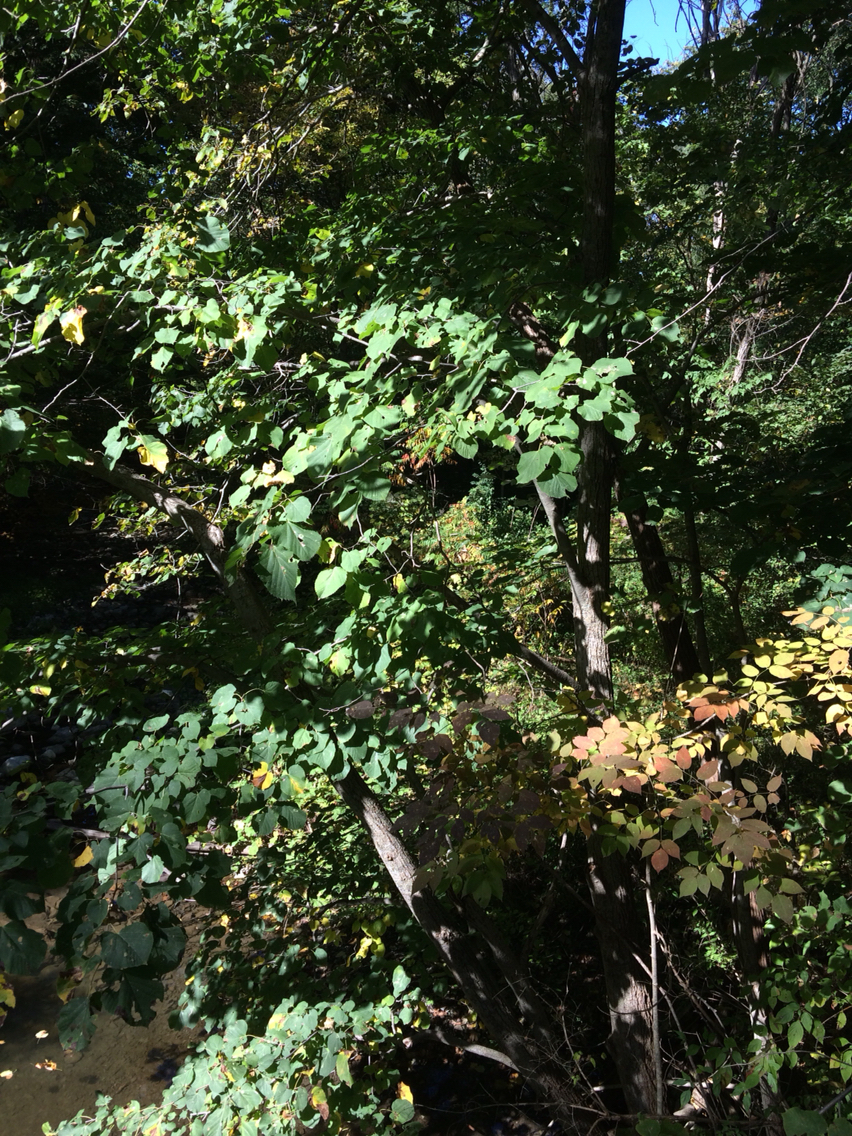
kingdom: Plantae
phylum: Tracheophyta
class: Magnoliopsida
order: Malvales
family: Malvaceae
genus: Tilia
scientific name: Tilia americana
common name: Basswood
